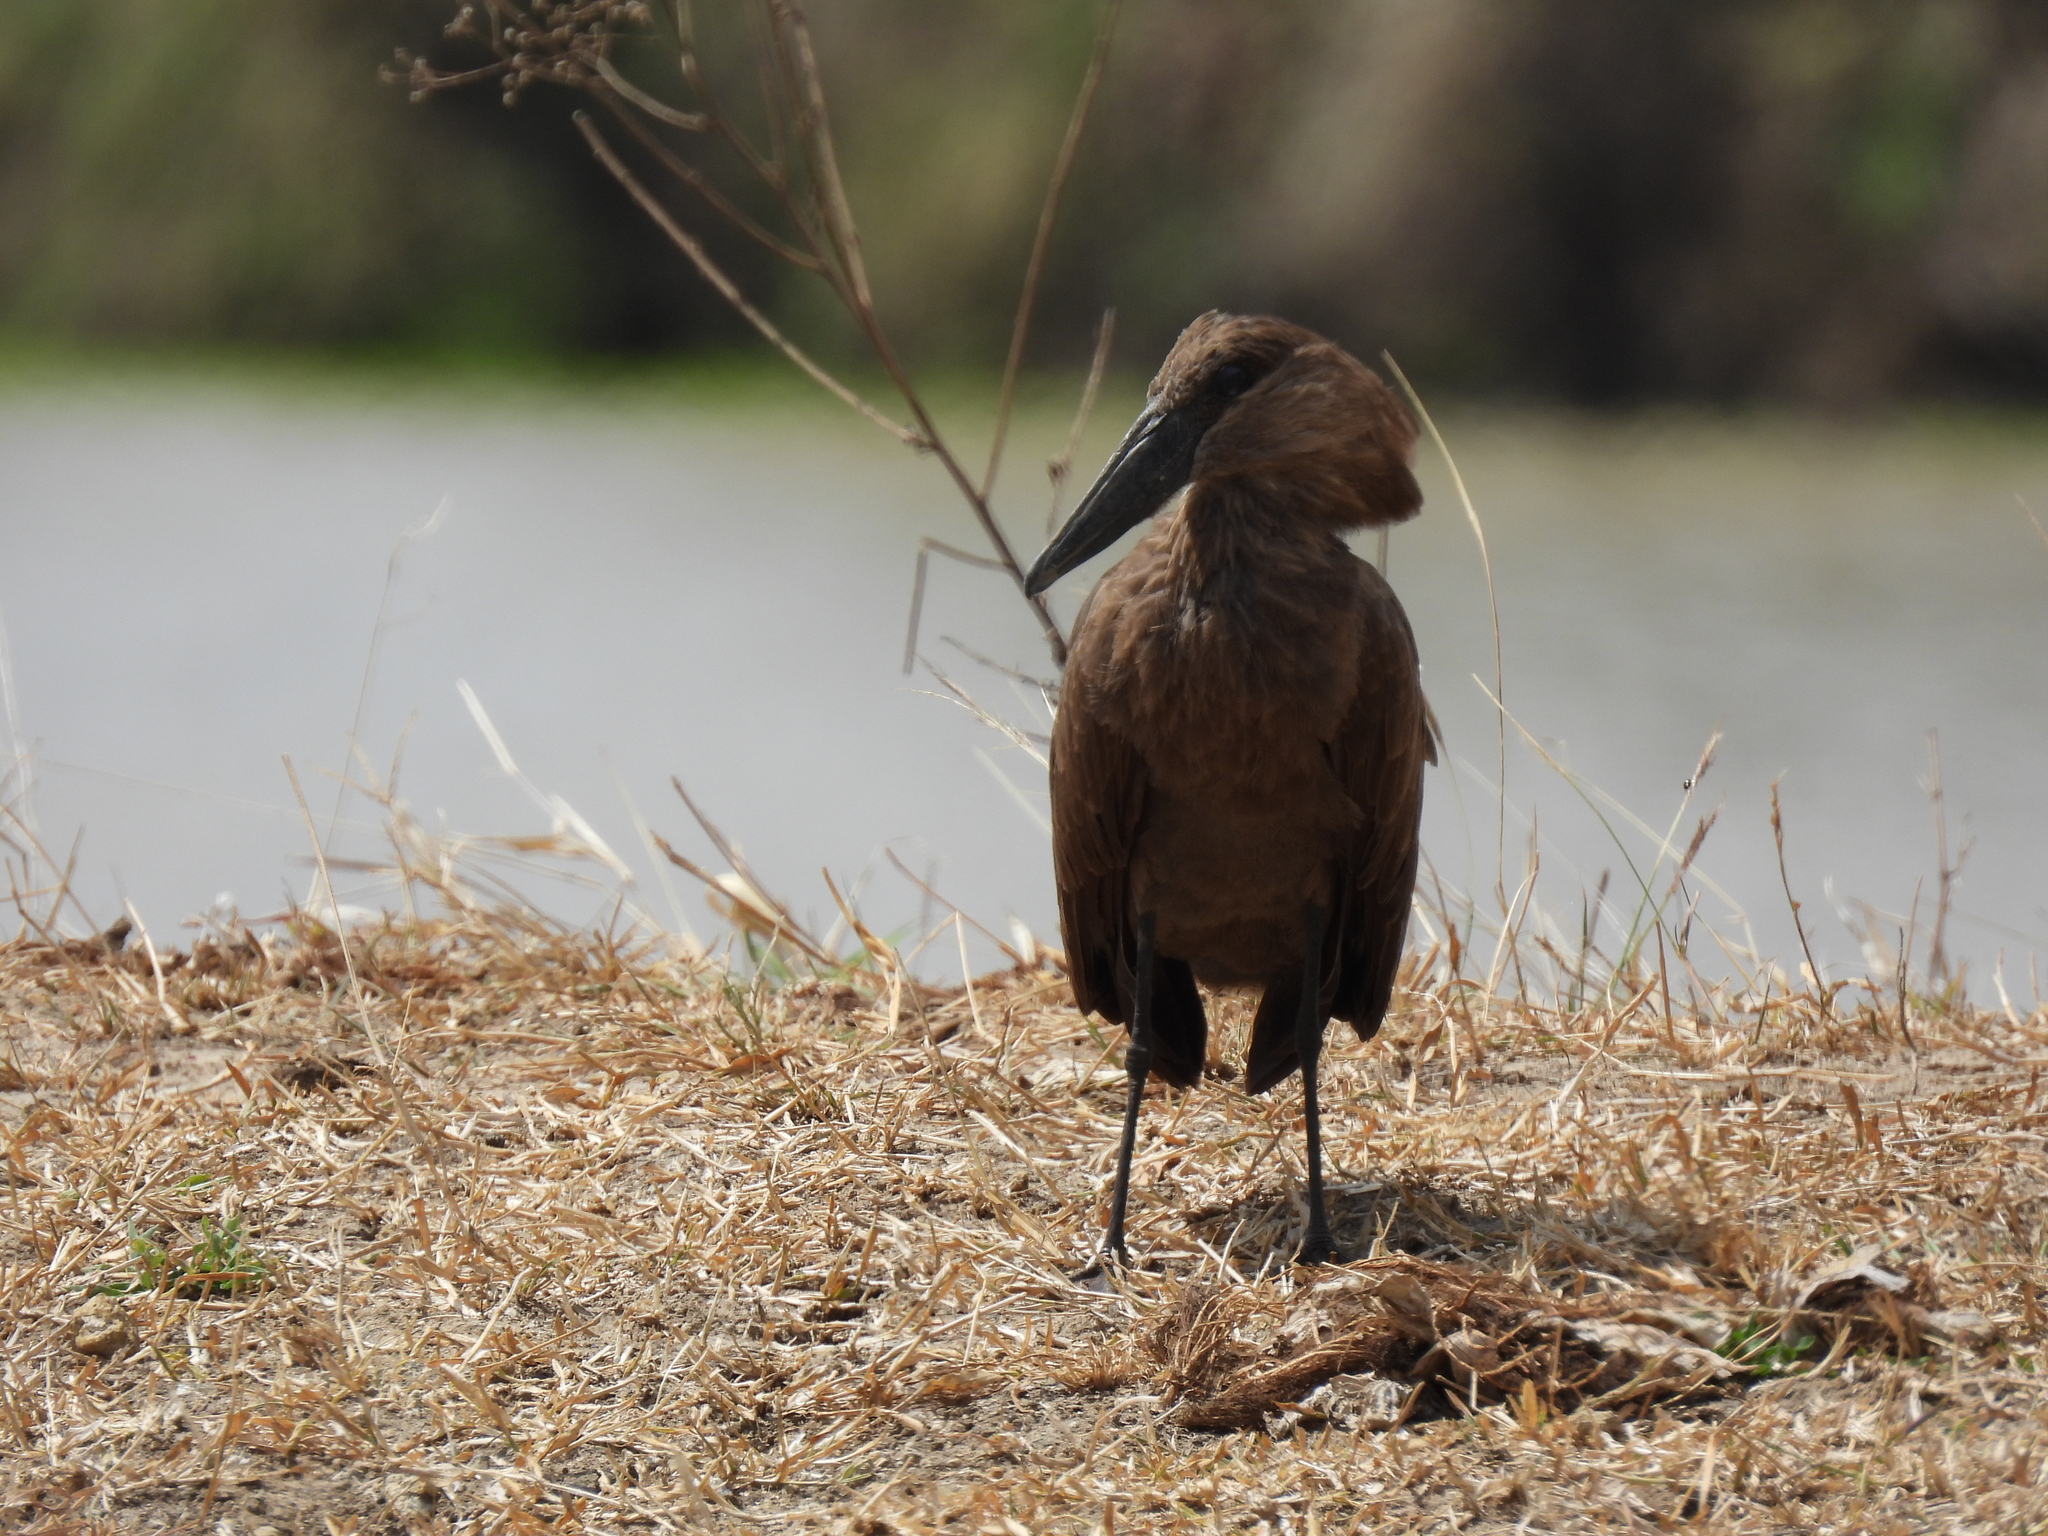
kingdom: Animalia
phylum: Chordata
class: Aves
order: Pelecaniformes
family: Scopidae
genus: Scopus
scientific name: Scopus umbretta
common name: Hamerkop
